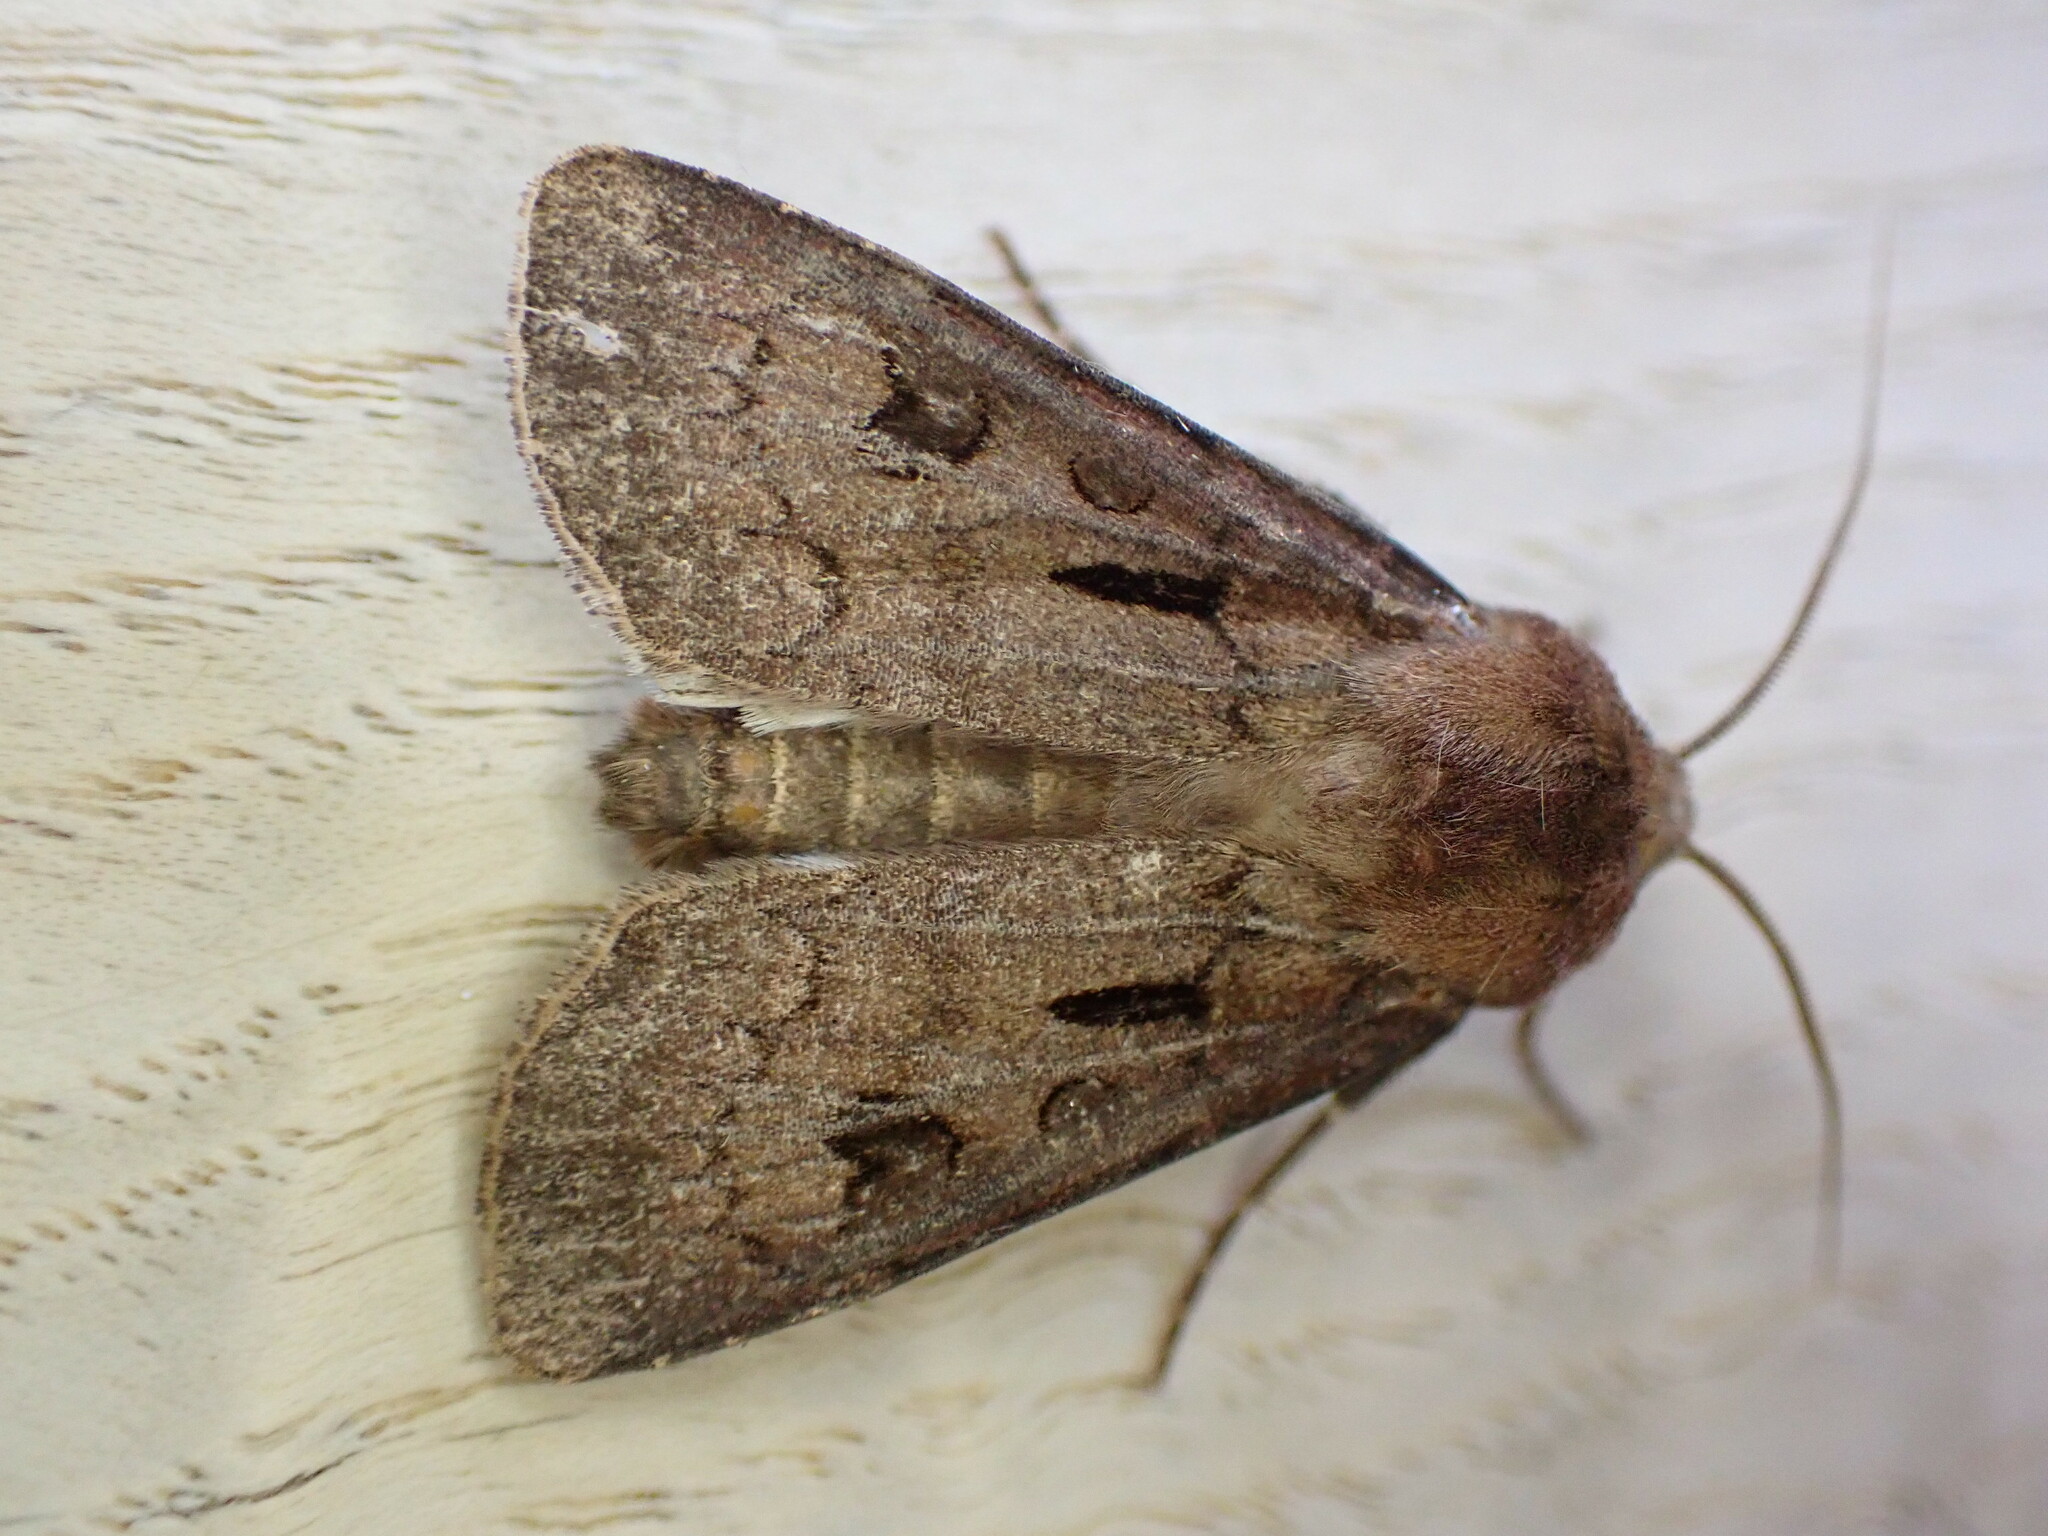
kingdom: Animalia
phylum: Arthropoda
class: Insecta
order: Lepidoptera
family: Noctuidae
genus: Agrotis
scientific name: Agrotis exclamationis
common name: Heart and dart
